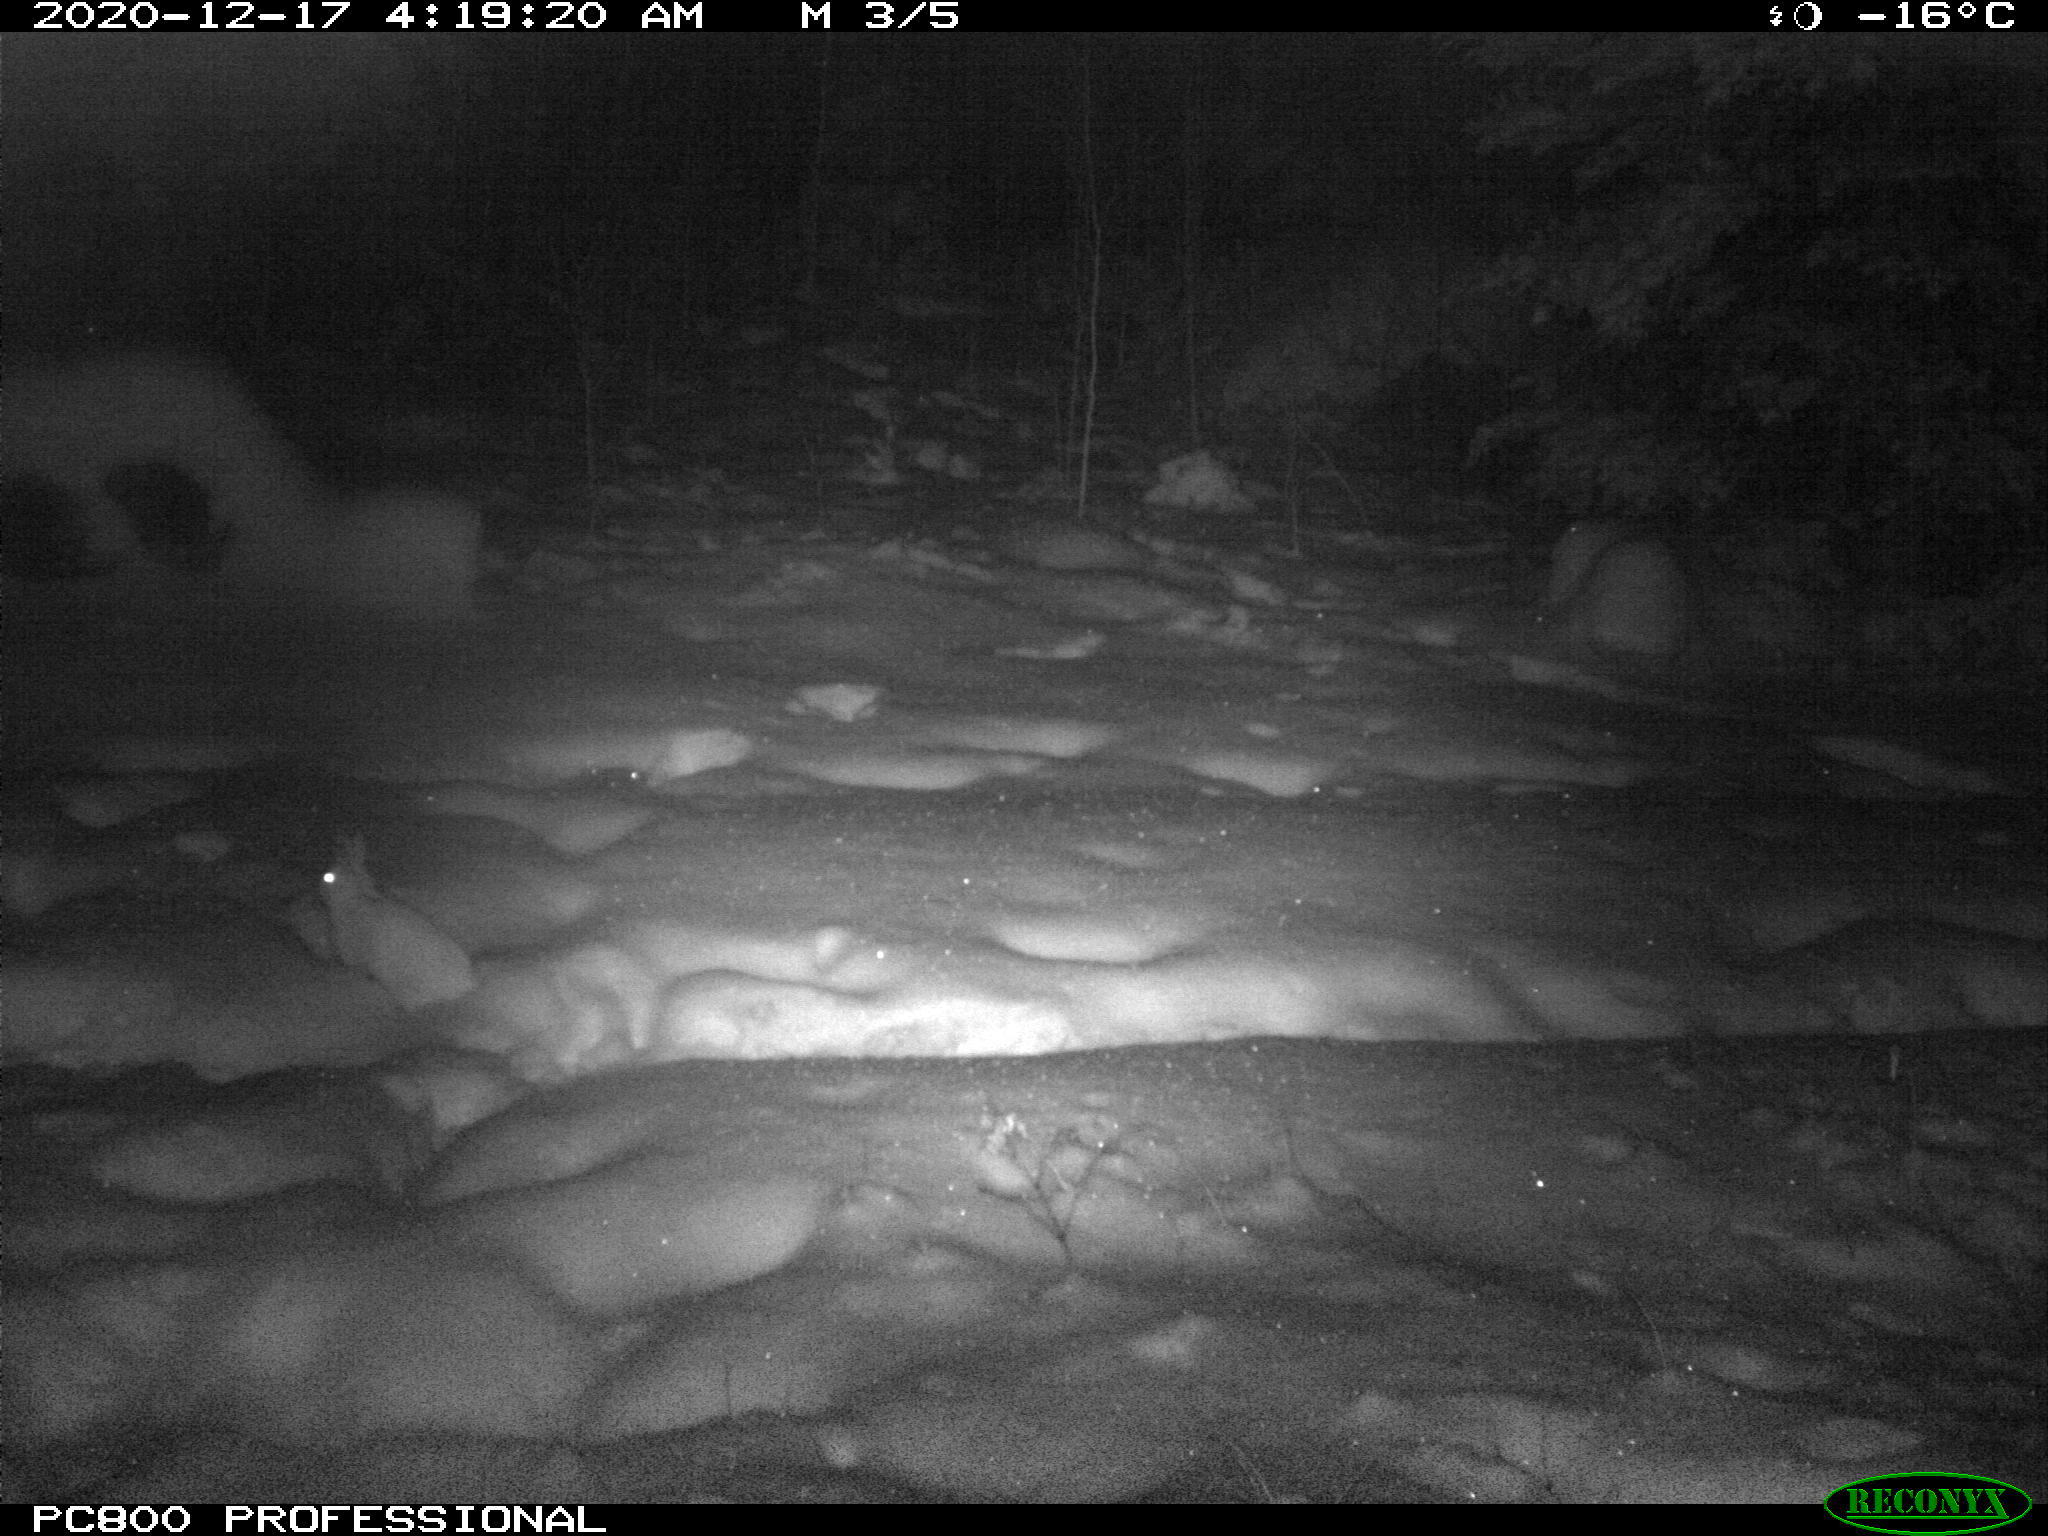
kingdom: Animalia
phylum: Chordata
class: Mammalia
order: Lagomorpha
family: Leporidae
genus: Lepus
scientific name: Lepus americanus
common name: Snowshoe hare
